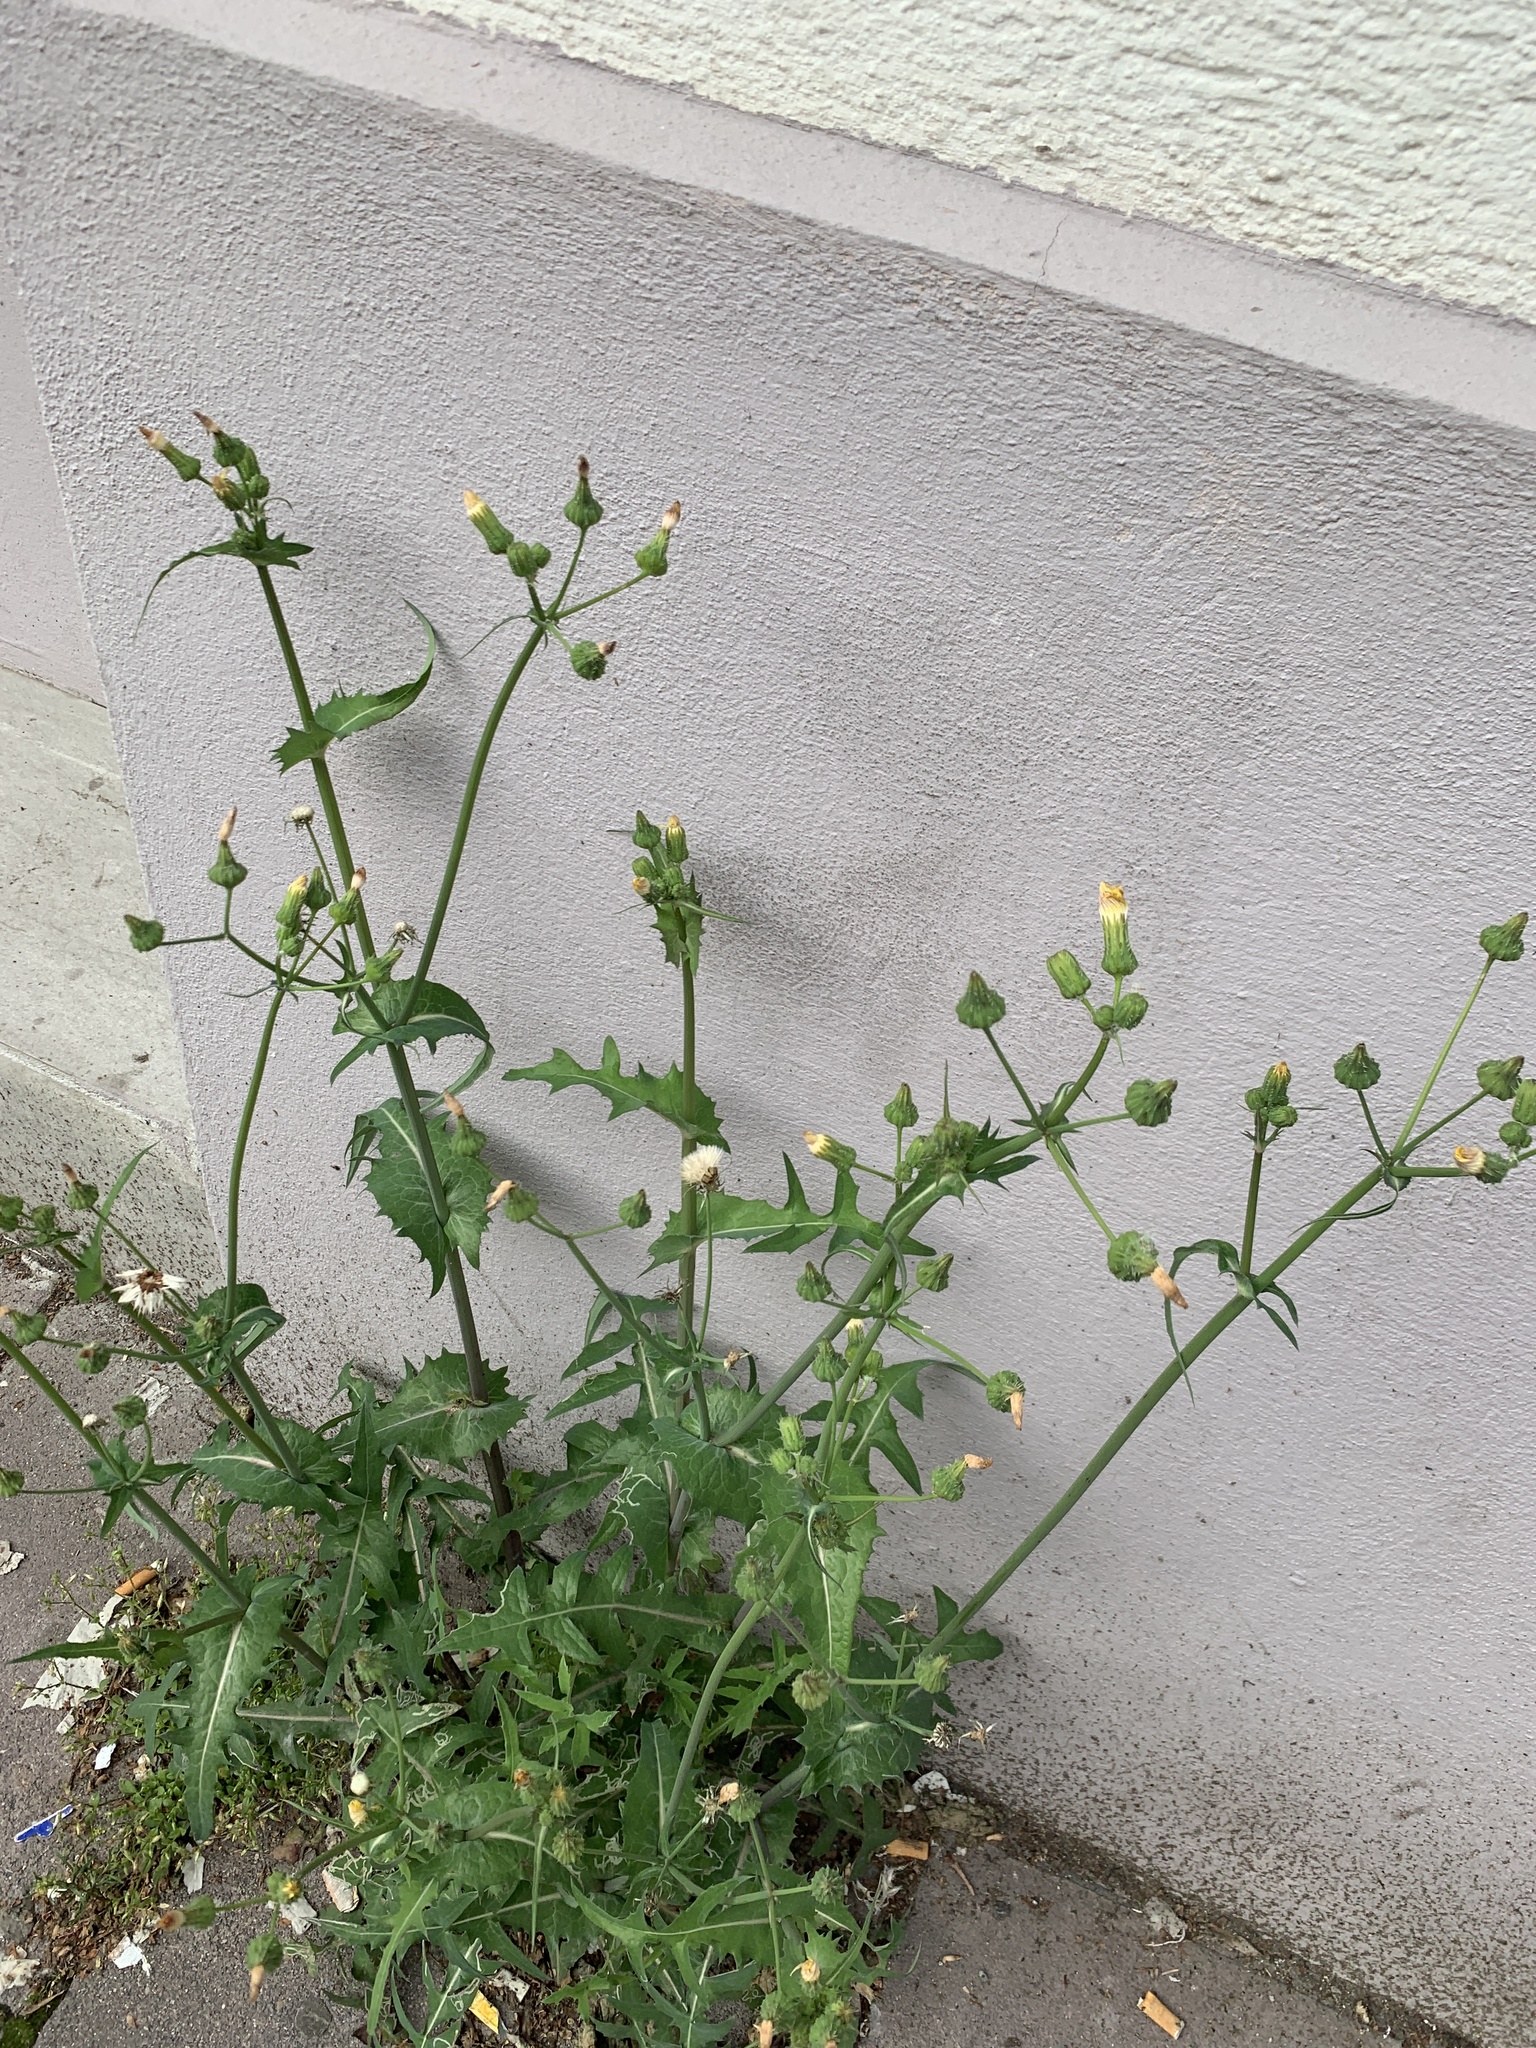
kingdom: Plantae
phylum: Tracheophyta
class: Magnoliopsida
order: Asterales
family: Asteraceae
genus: Sonchus
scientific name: Sonchus oleraceus
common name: Common sowthistle
